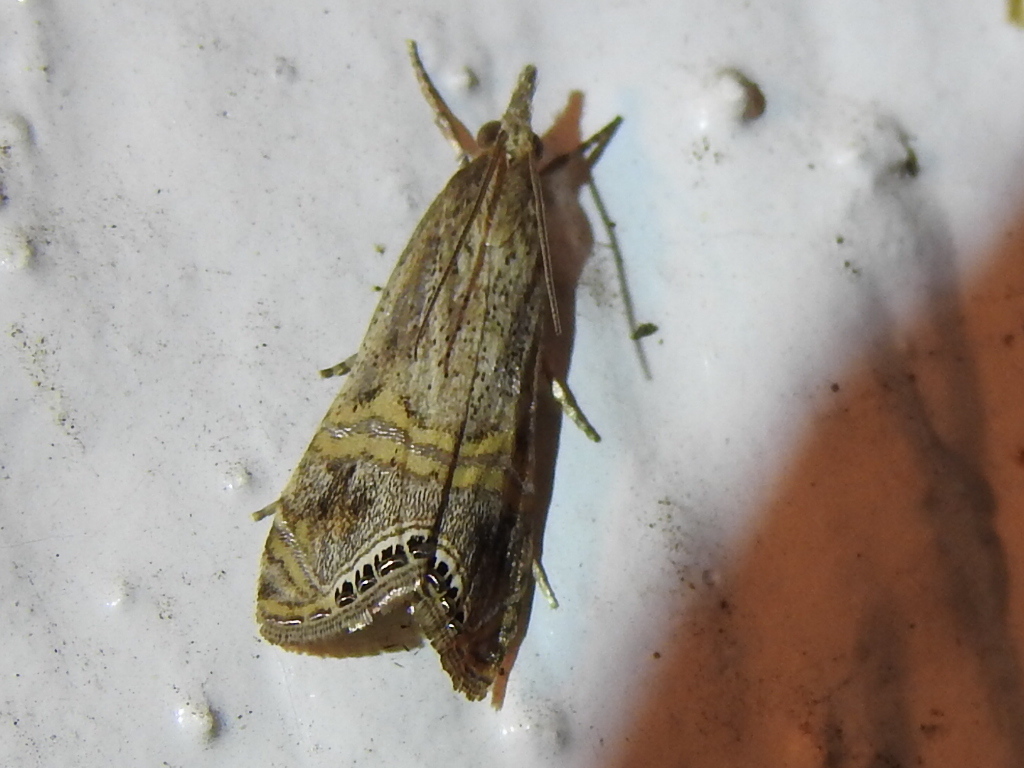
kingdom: Animalia
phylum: Arthropoda
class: Insecta
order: Lepidoptera
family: Crambidae
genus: Euchromius
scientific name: Euchromius ocellea
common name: Necklace veneer moth
